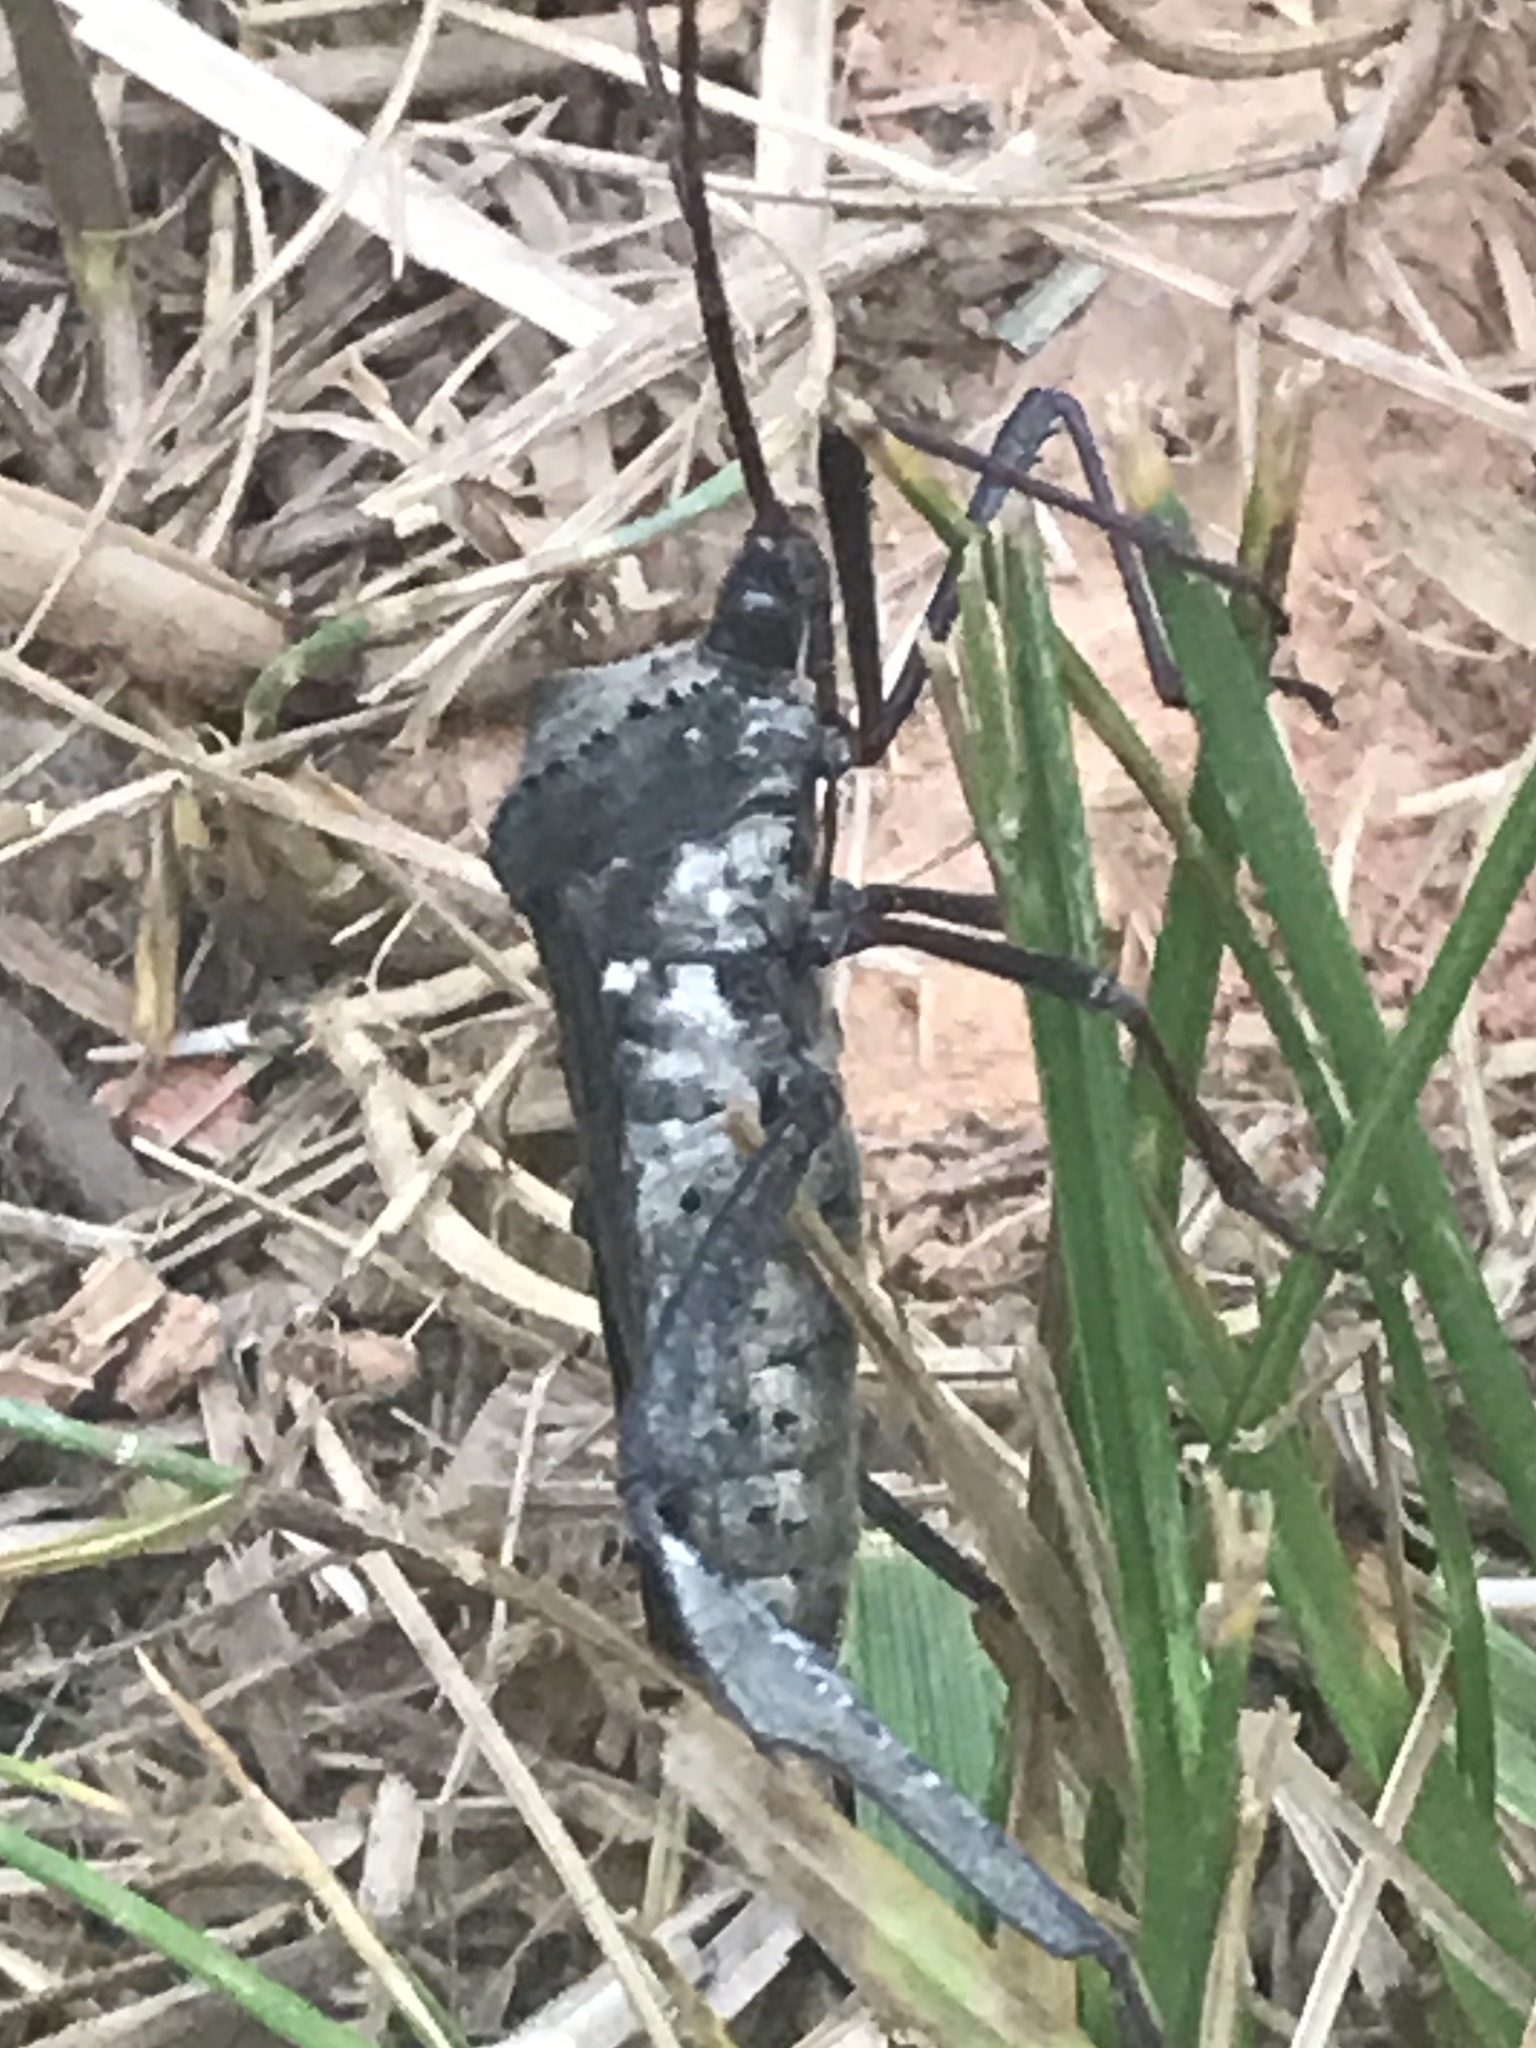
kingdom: Animalia
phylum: Arthropoda
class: Insecta
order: Hemiptera
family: Coreidae
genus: Acanthocephala
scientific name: Acanthocephala declivis
